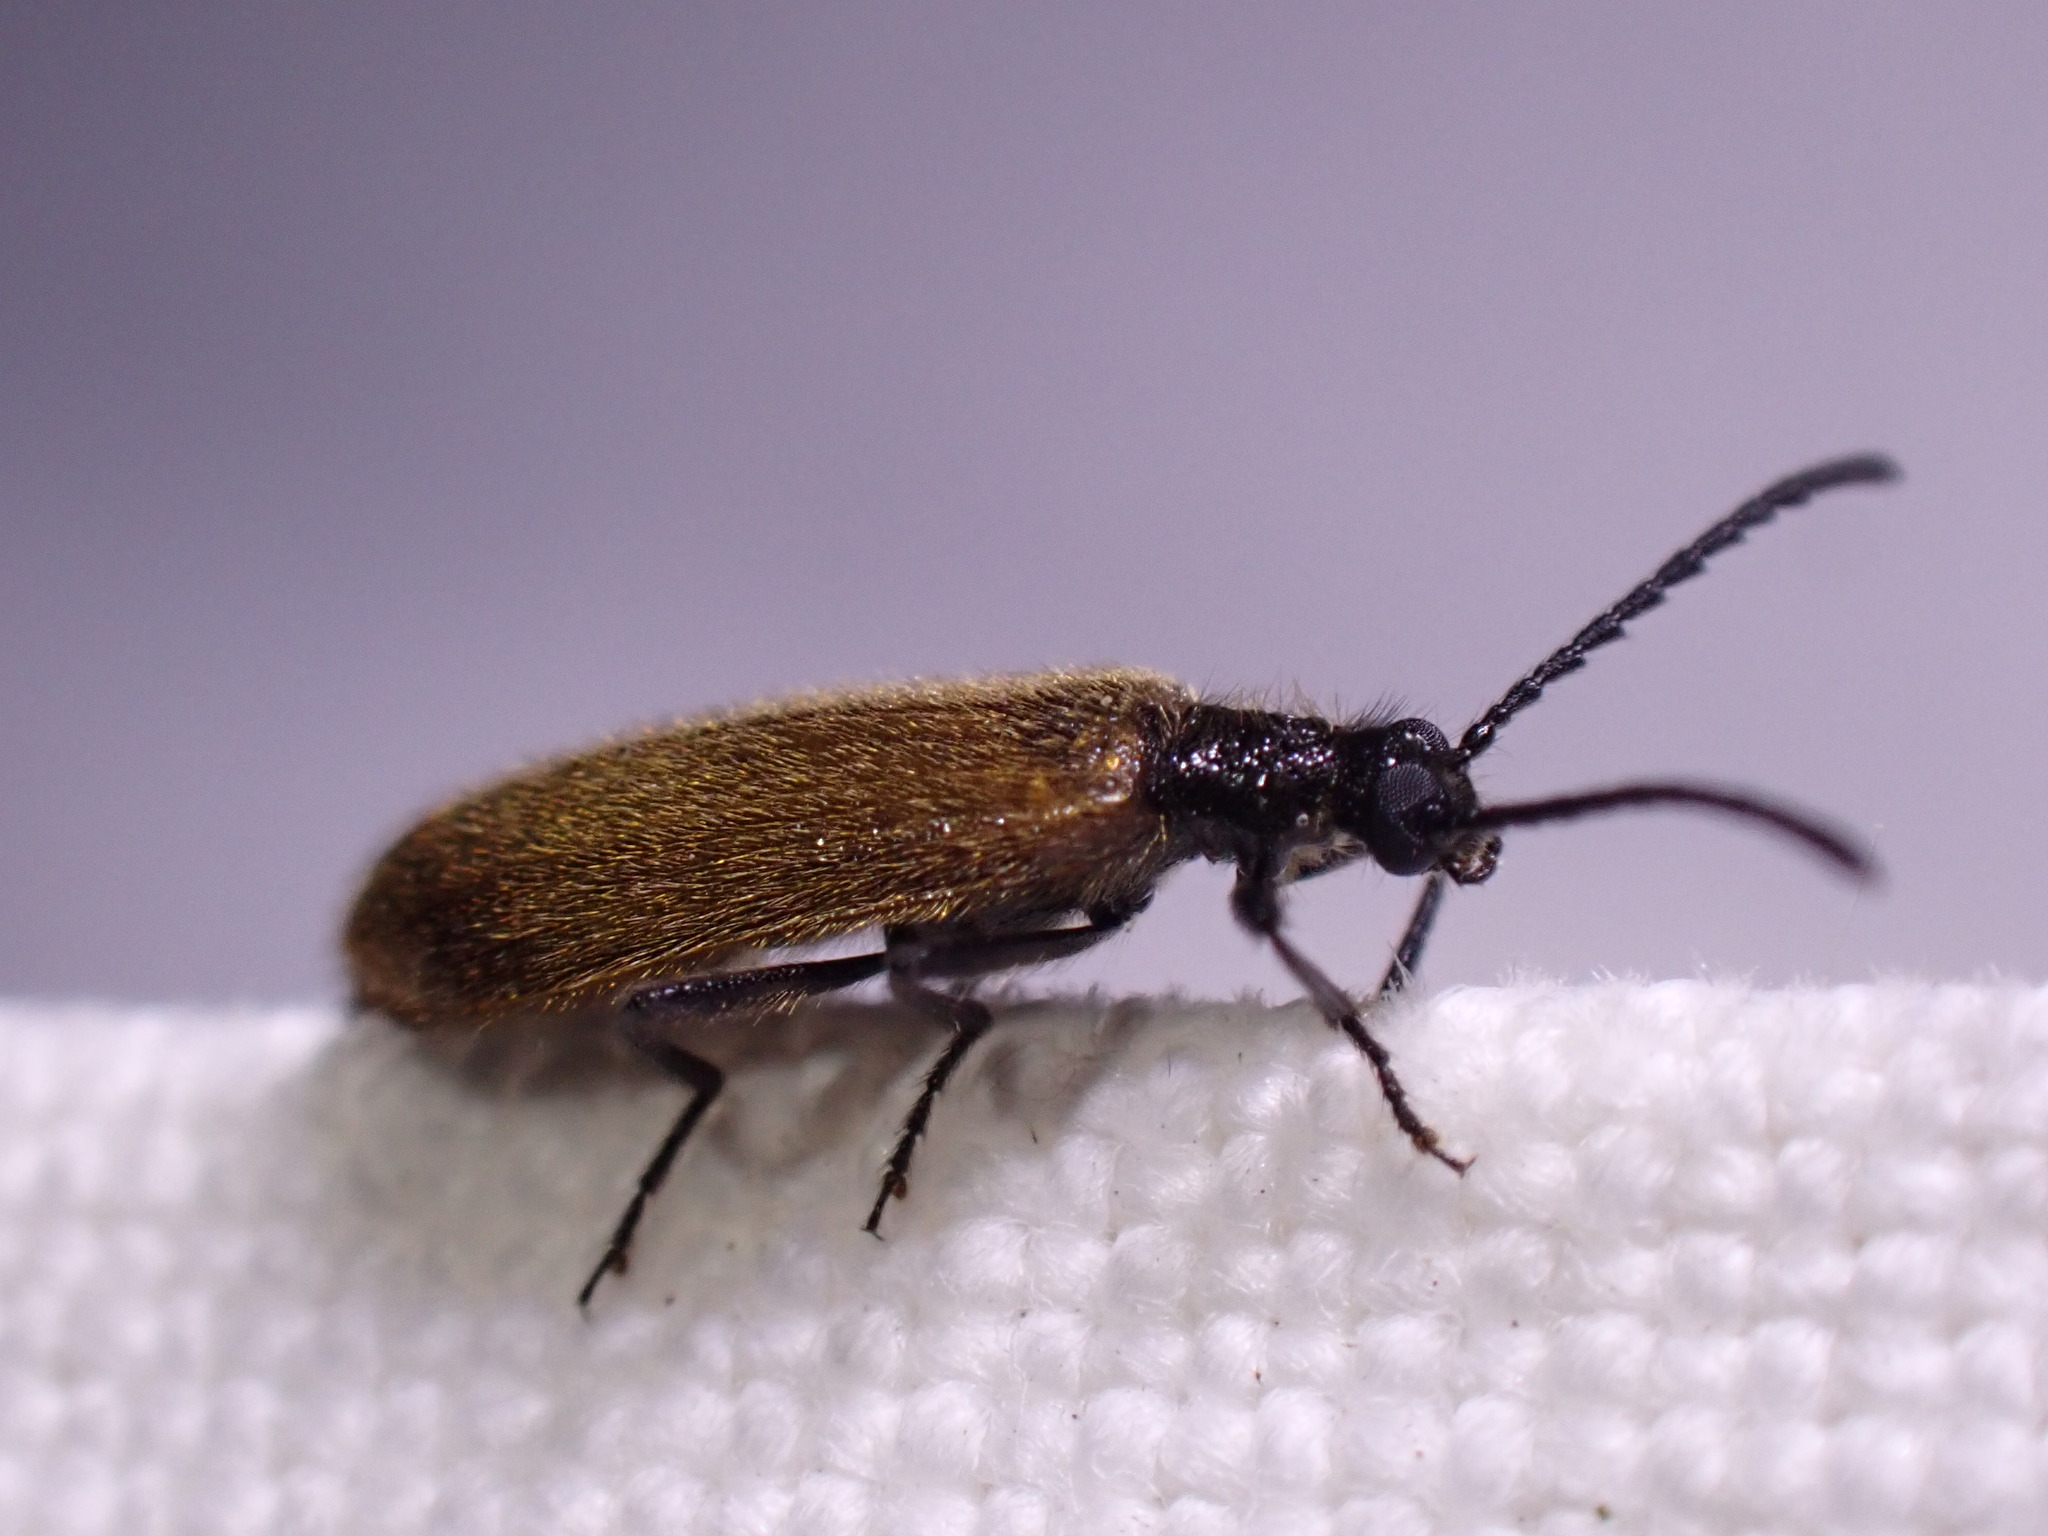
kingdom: Animalia
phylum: Arthropoda
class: Insecta
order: Coleoptera
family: Tenebrionidae
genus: Lagria
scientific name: Lagria hirta
